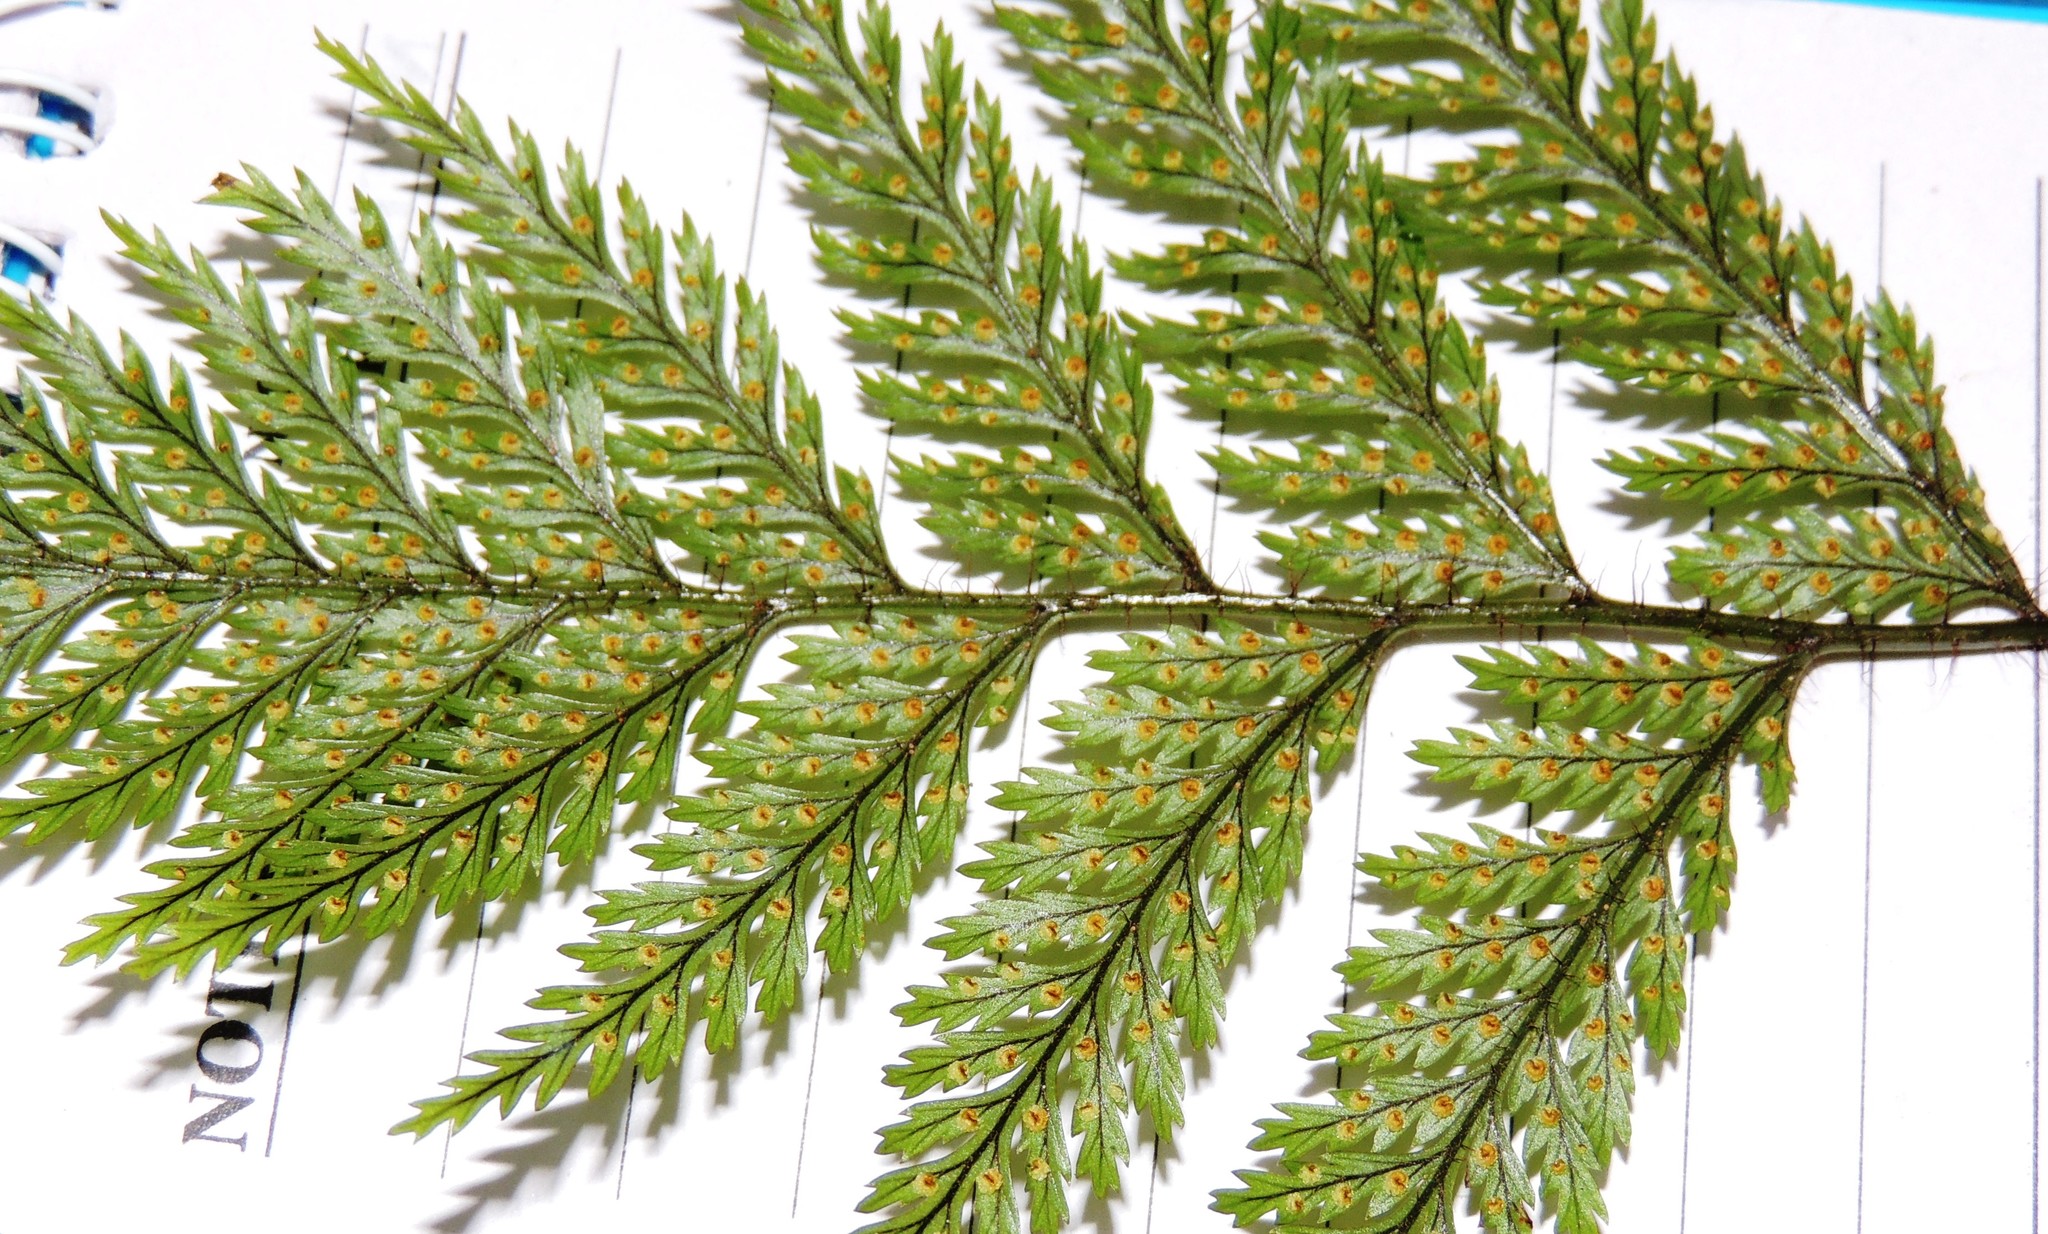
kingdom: Plantae
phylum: Tracheophyta
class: Polypodiopsida
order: Polypodiales
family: Dryopteridaceae
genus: Lastreopsis
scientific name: Lastreopsis hispida
